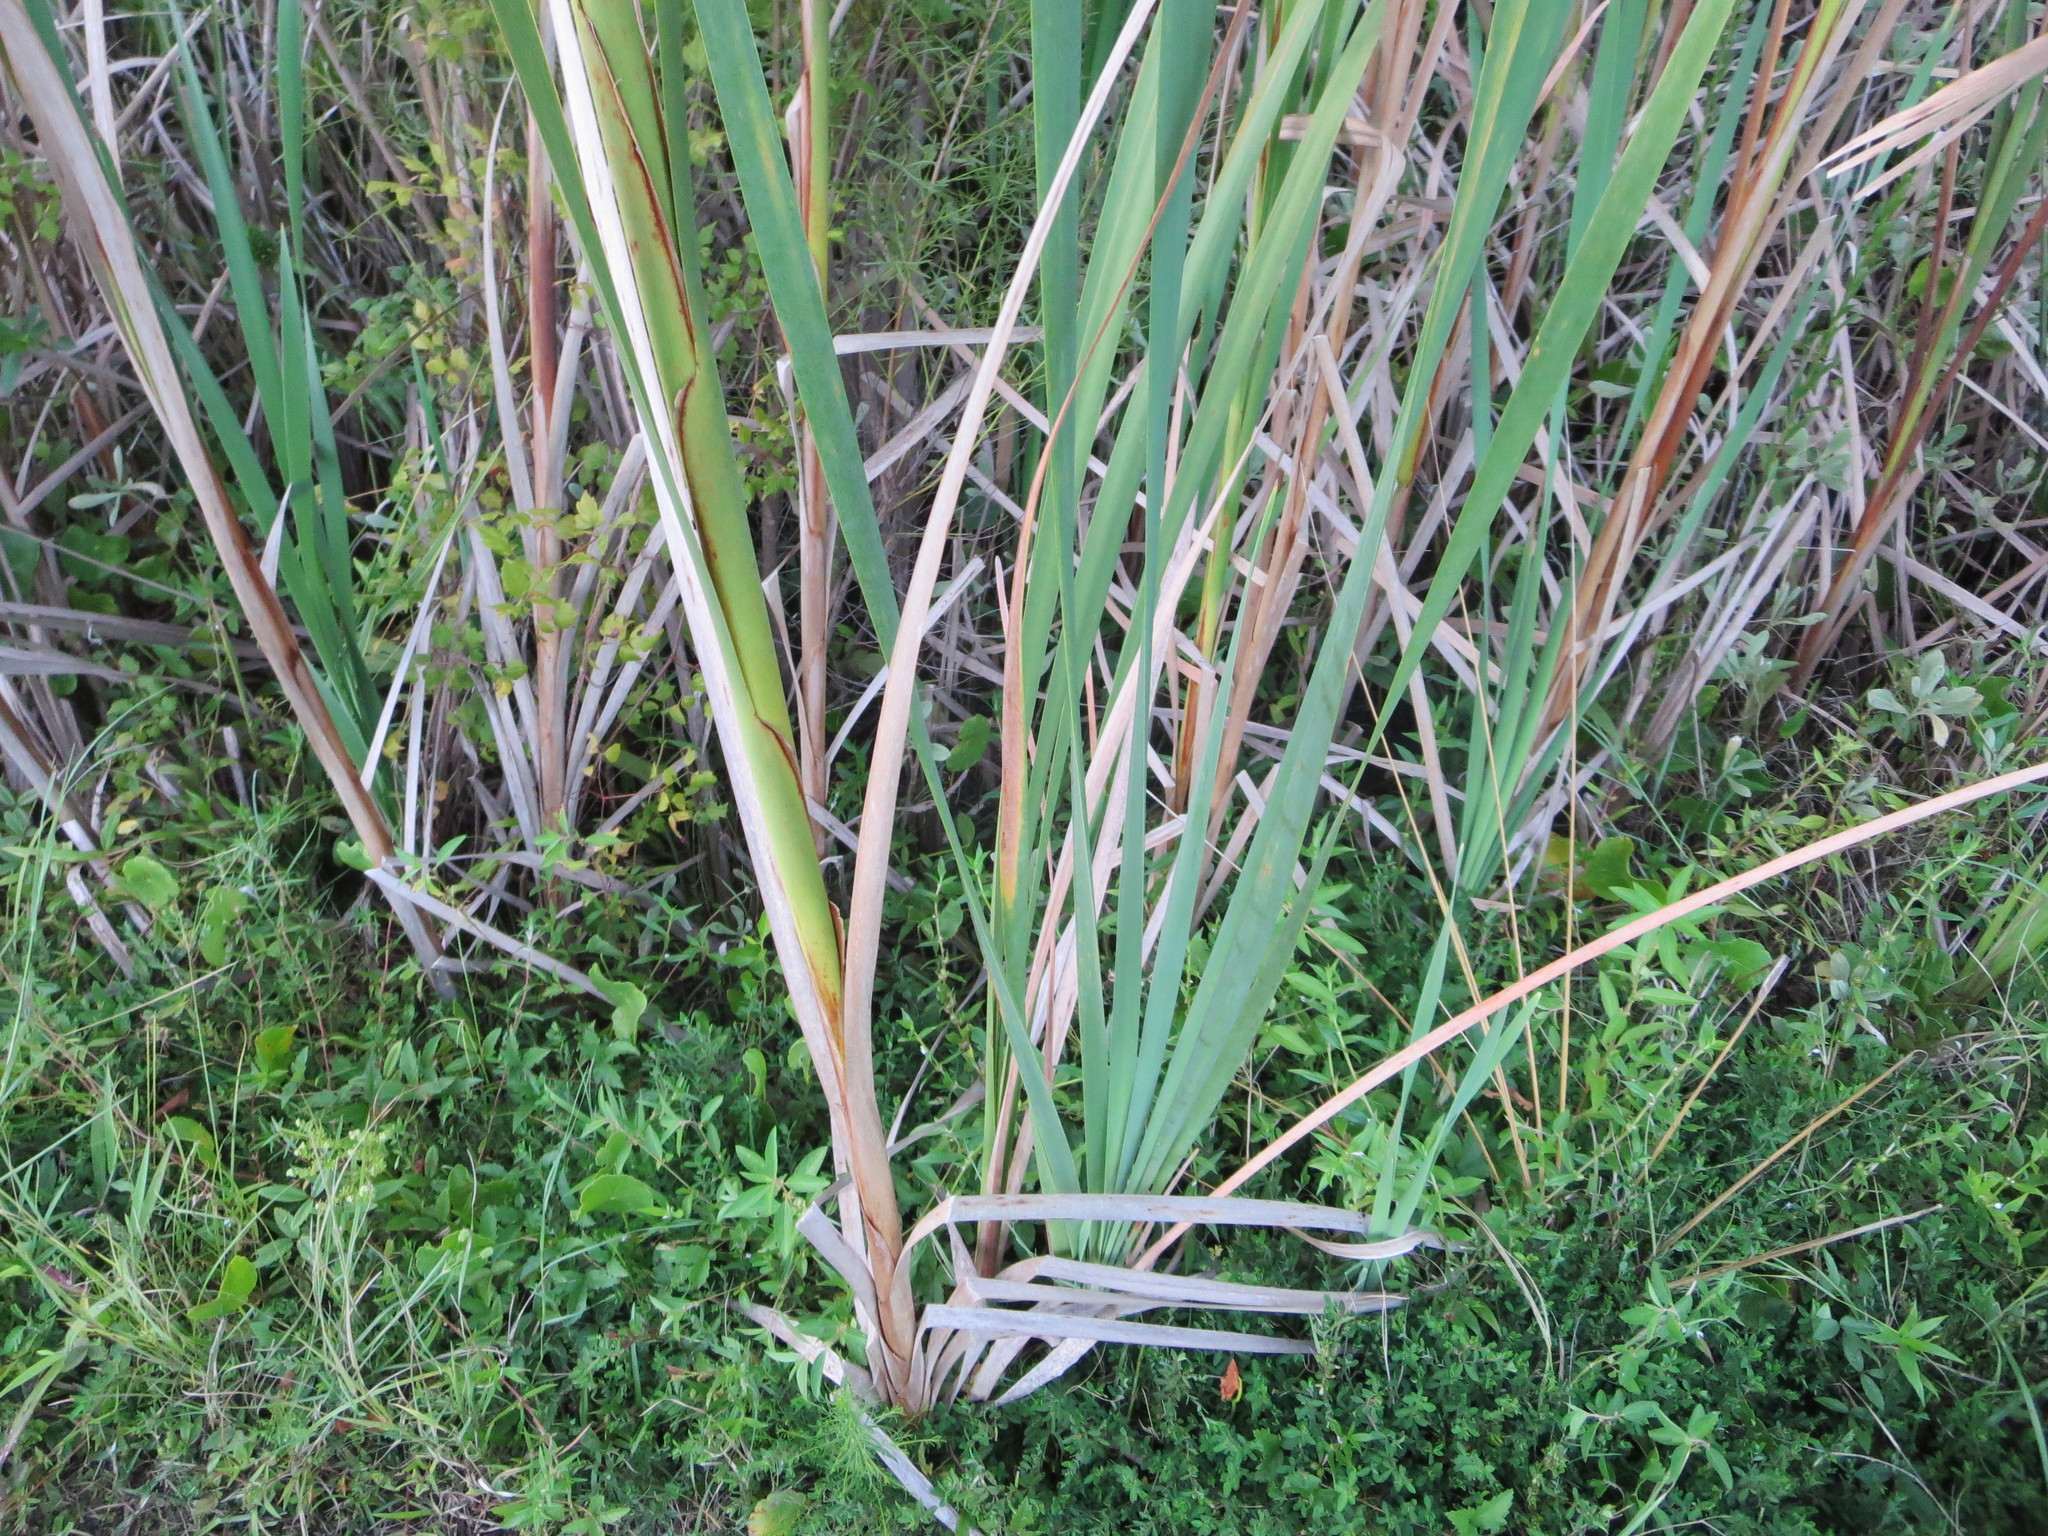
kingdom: Plantae
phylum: Tracheophyta
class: Liliopsida
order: Poales
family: Typhaceae
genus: Typha
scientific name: Typha latifolia
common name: Broadleaf cattail
